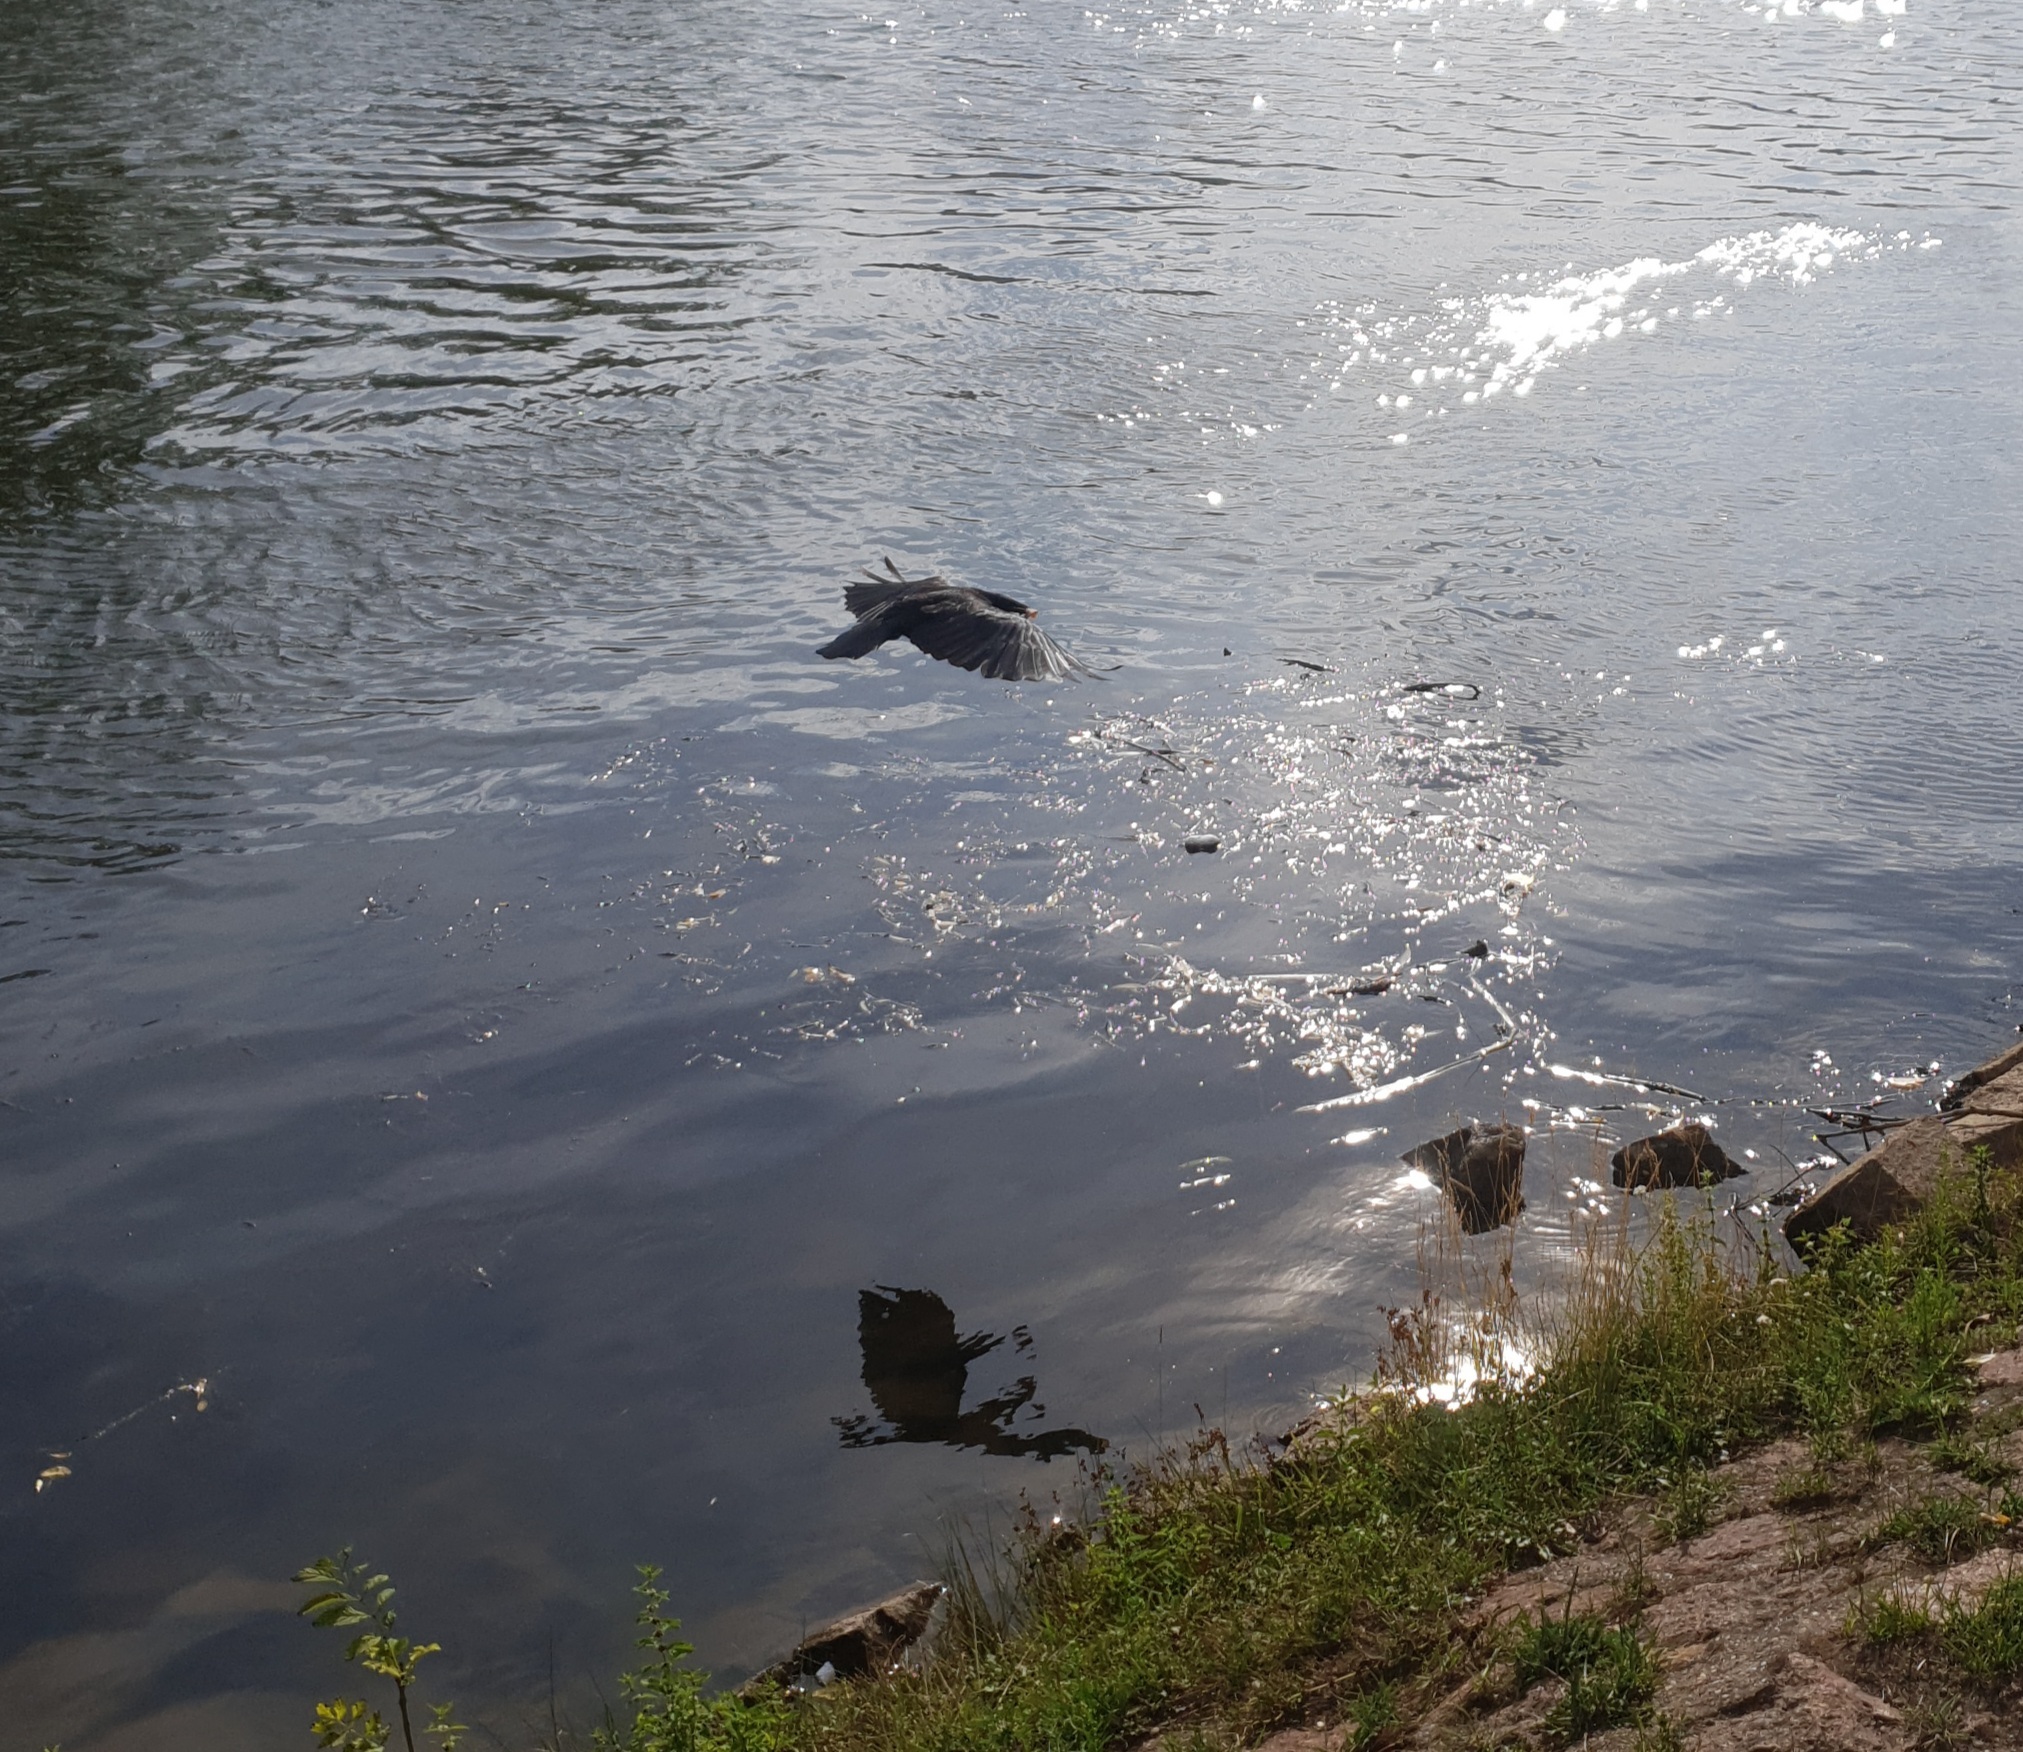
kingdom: Animalia
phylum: Chordata
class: Aves
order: Passeriformes
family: Corvidae
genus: Corvus
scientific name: Corvus corone
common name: Carrion crow
